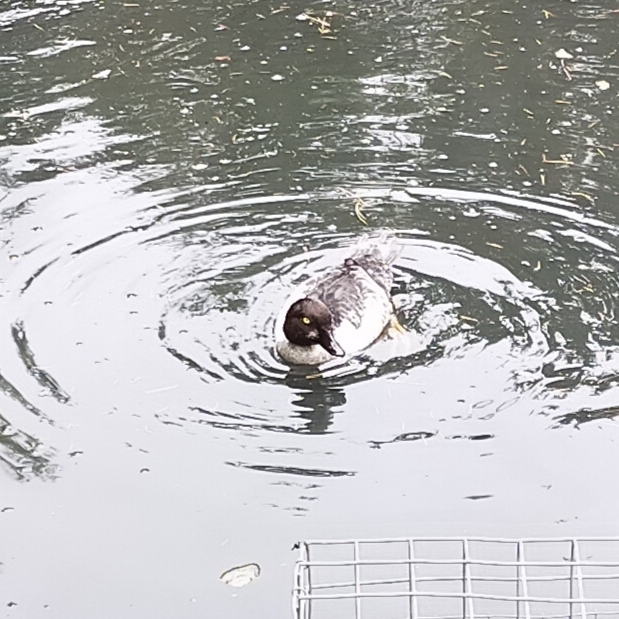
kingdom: Animalia
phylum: Chordata
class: Aves
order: Anseriformes
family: Anatidae
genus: Bucephala
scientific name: Bucephala clangula
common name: Common goldeneye
